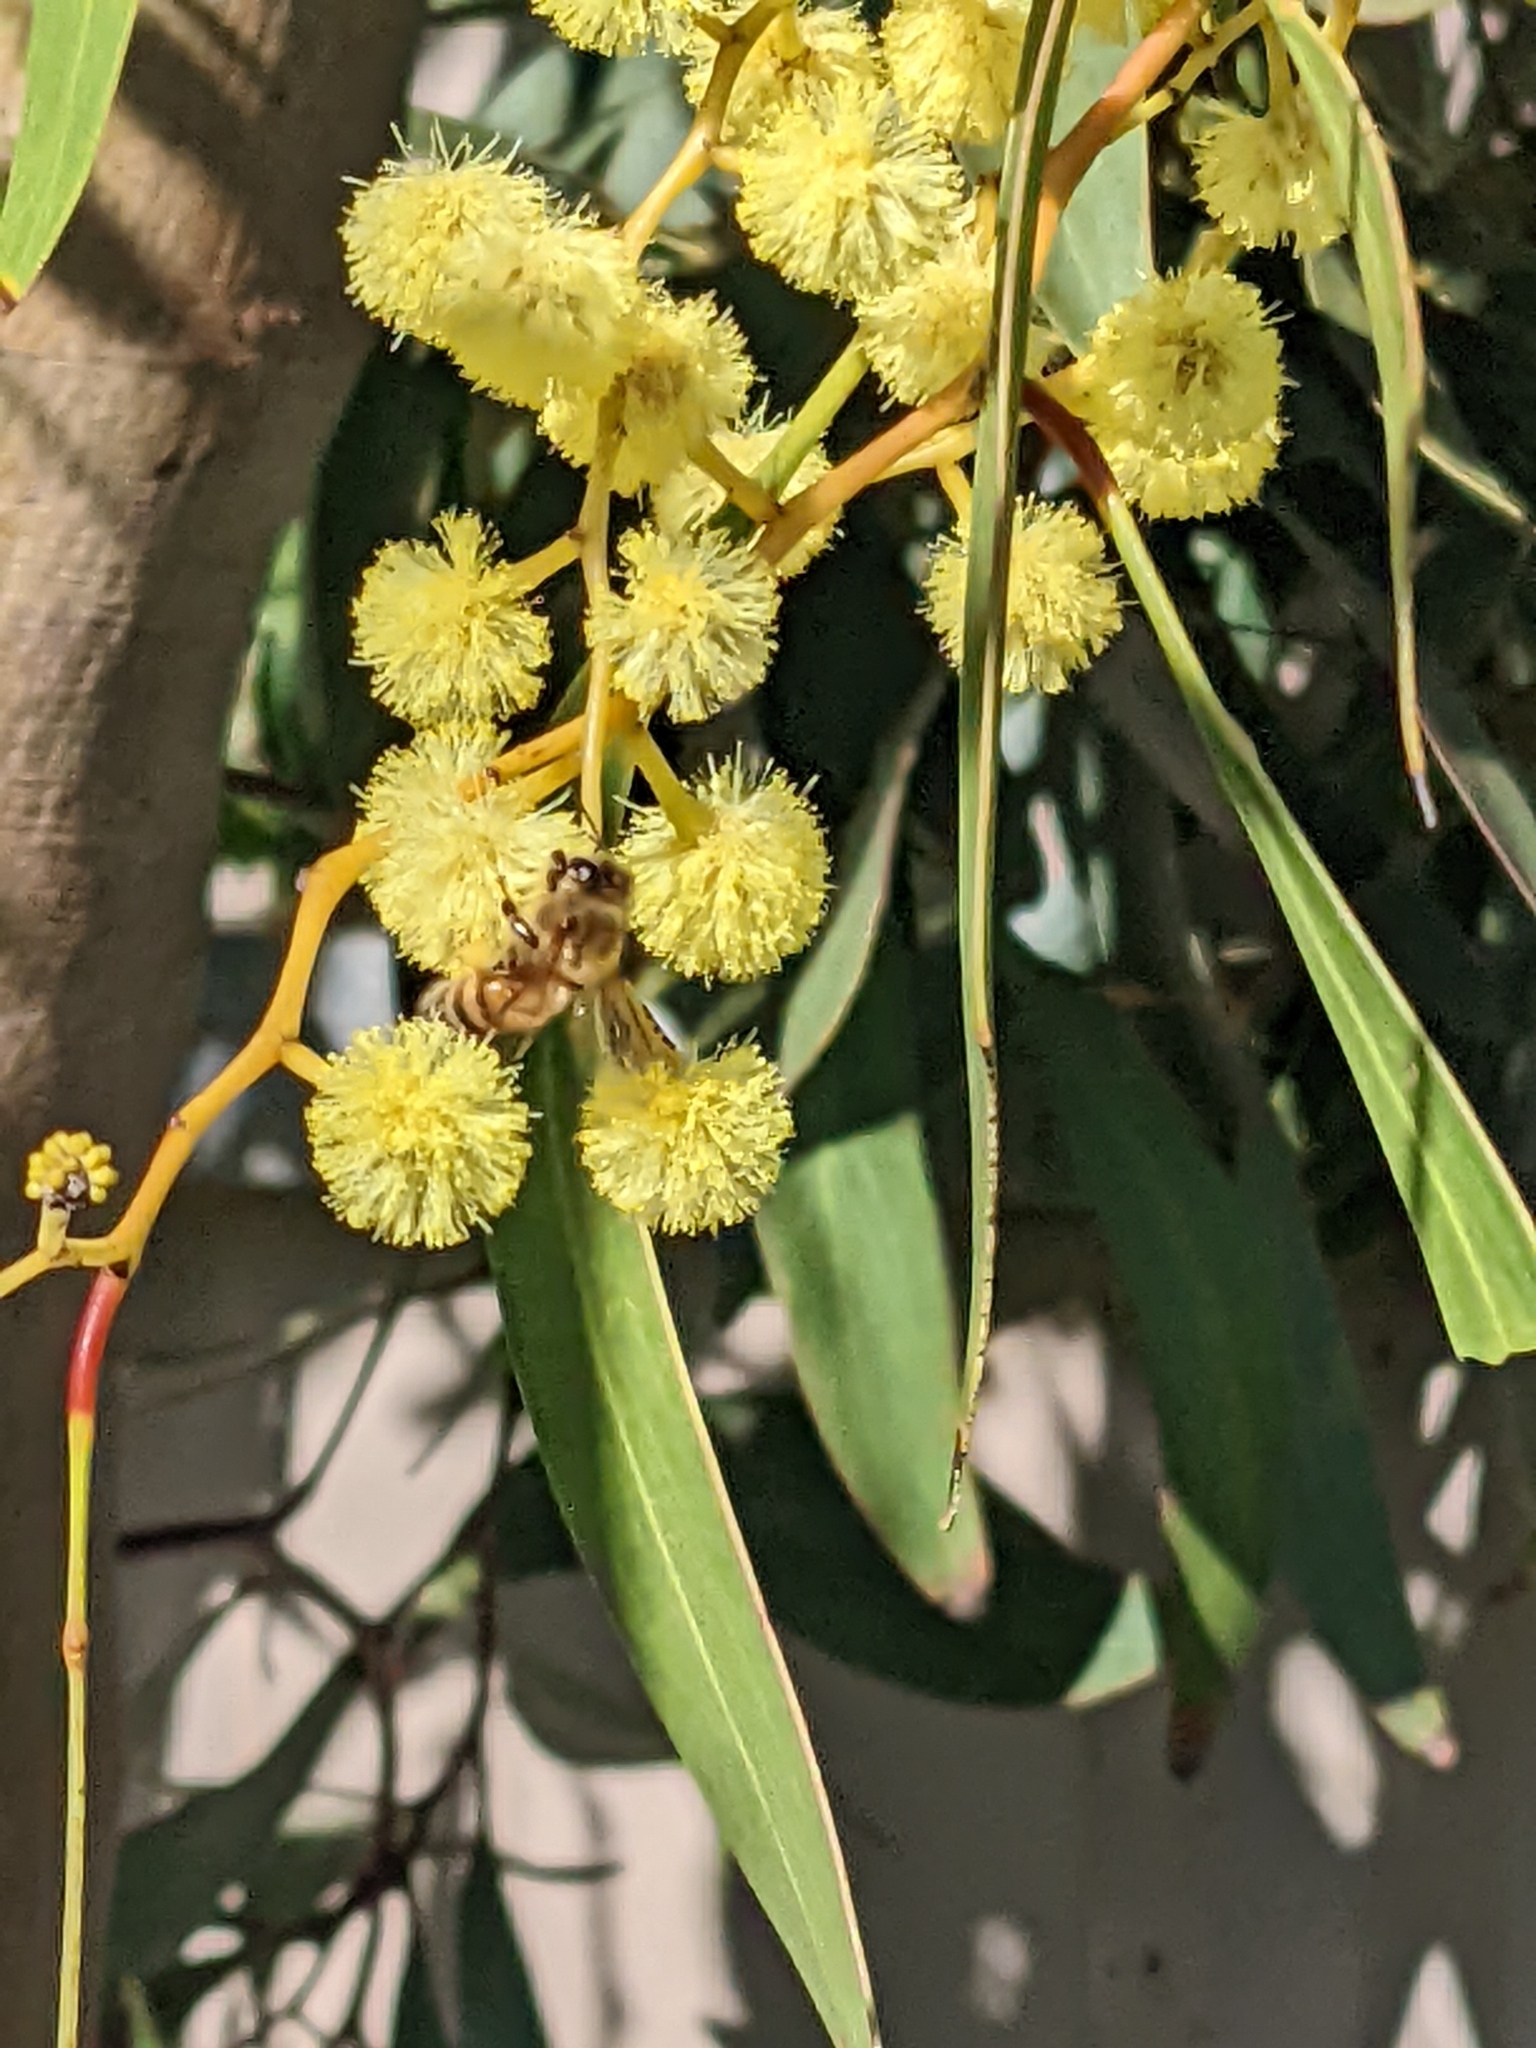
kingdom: Animalia
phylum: Arthropoda
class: Insecta
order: Hymenoptera
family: Apidae
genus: Apis
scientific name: Apis mellifera
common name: Honey bee
